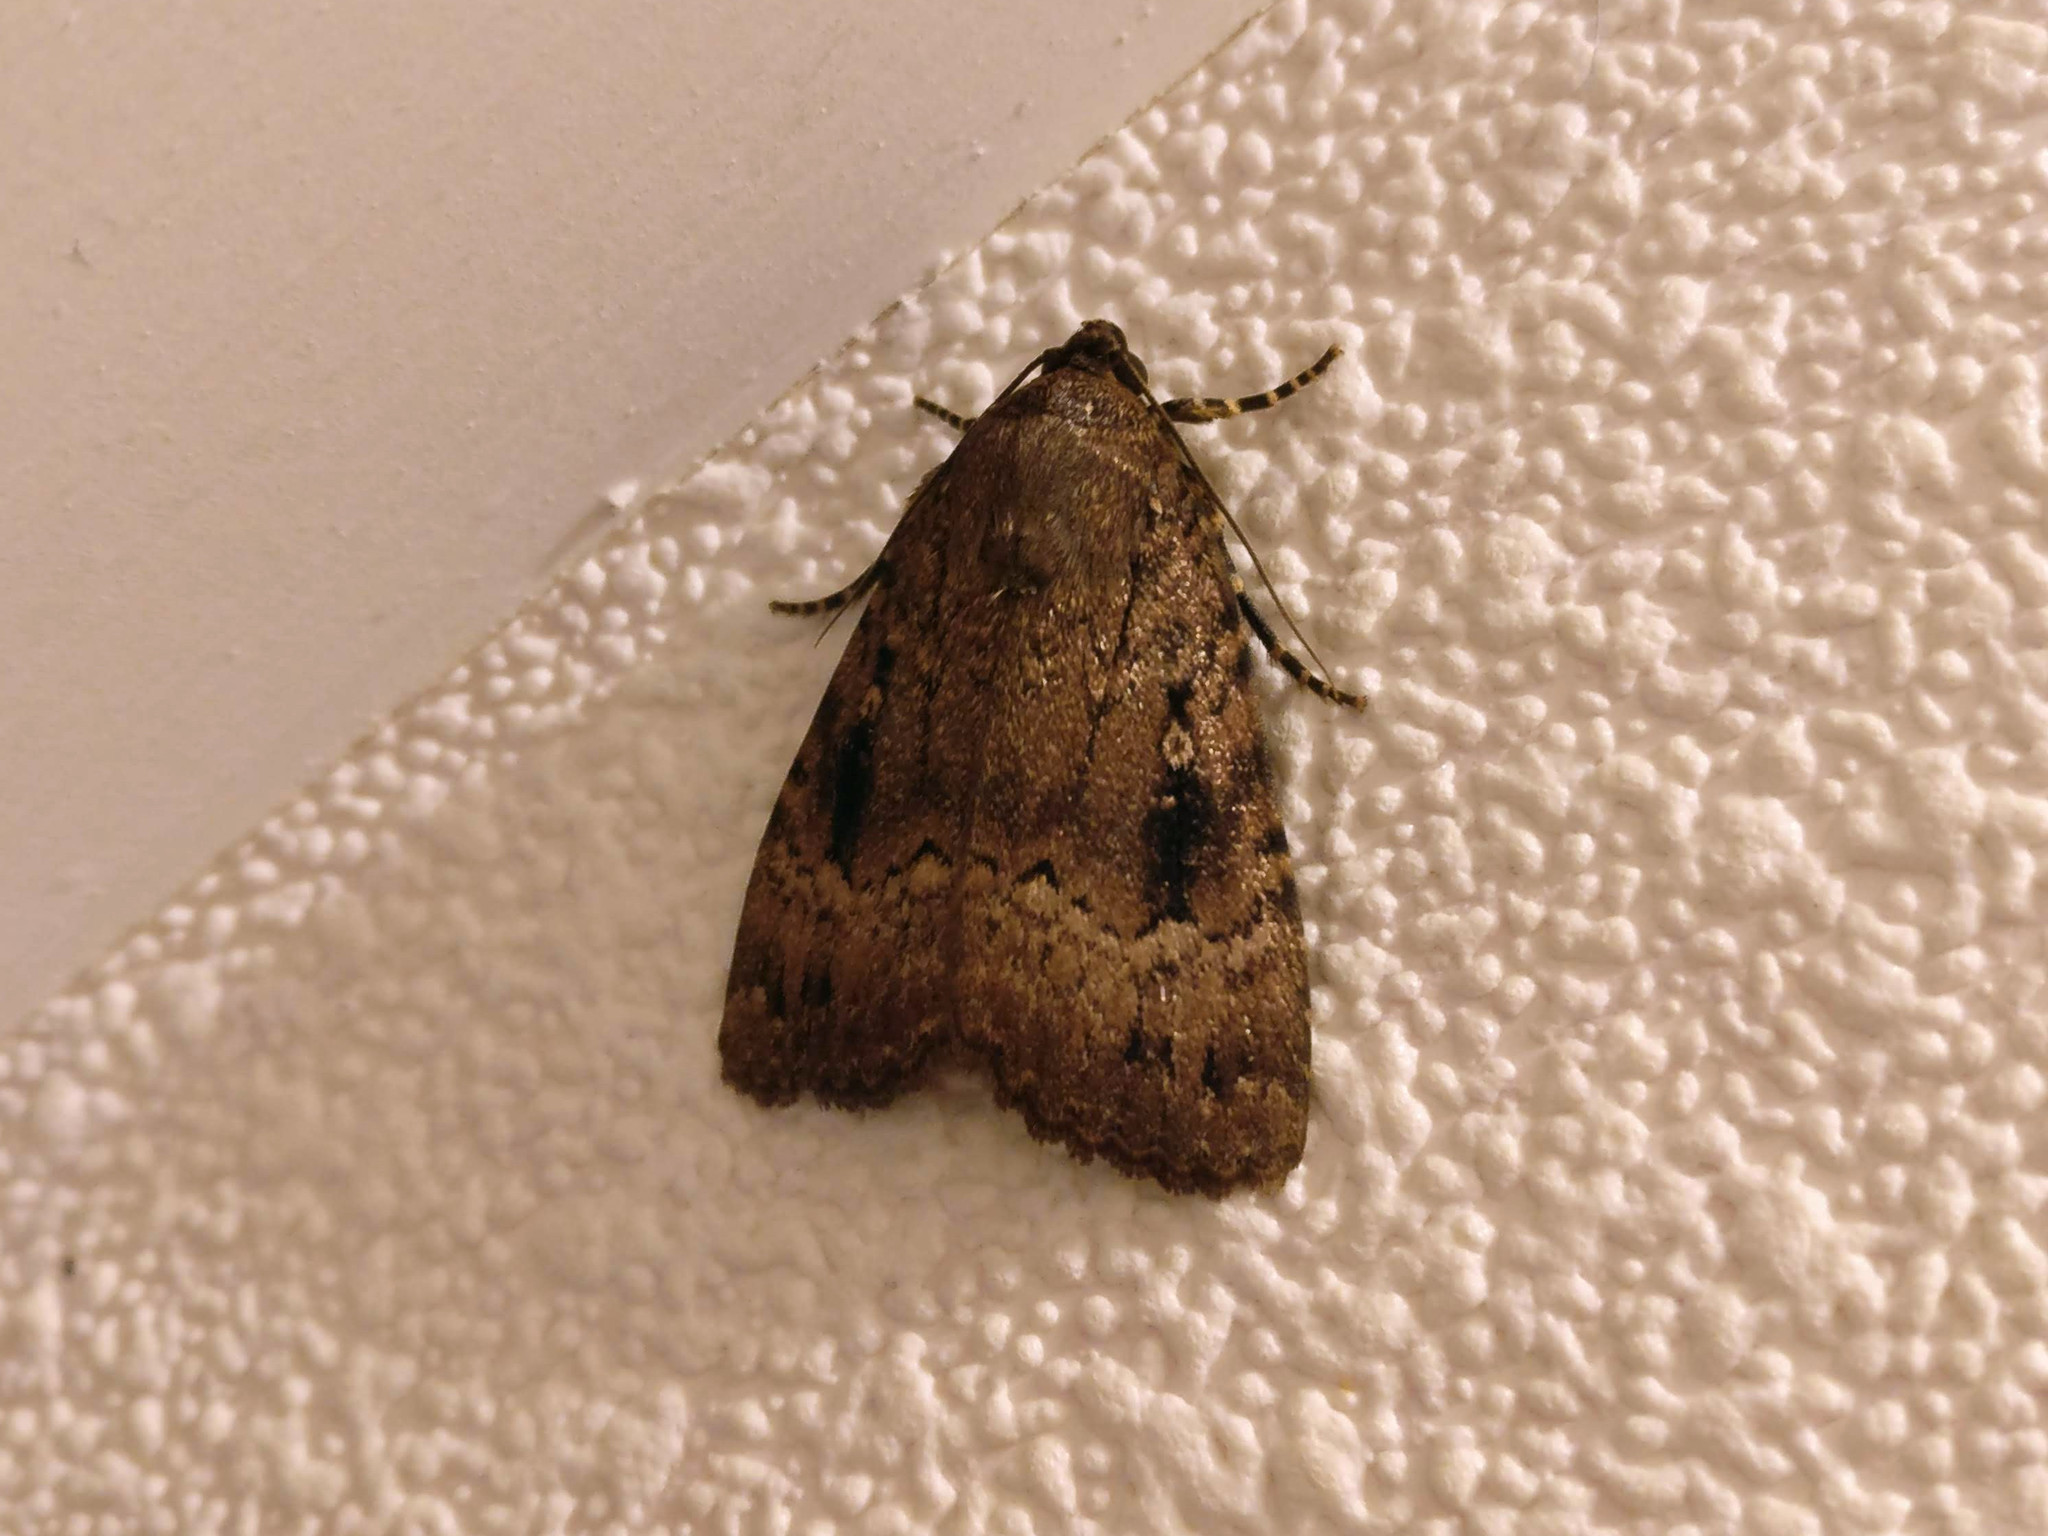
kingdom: Animalia
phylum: Arthropoda
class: Insecta
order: Lepidoptera
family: Noctuidae
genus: Amphipyra
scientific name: Amphipyra pyramidea
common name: Copper underwing
